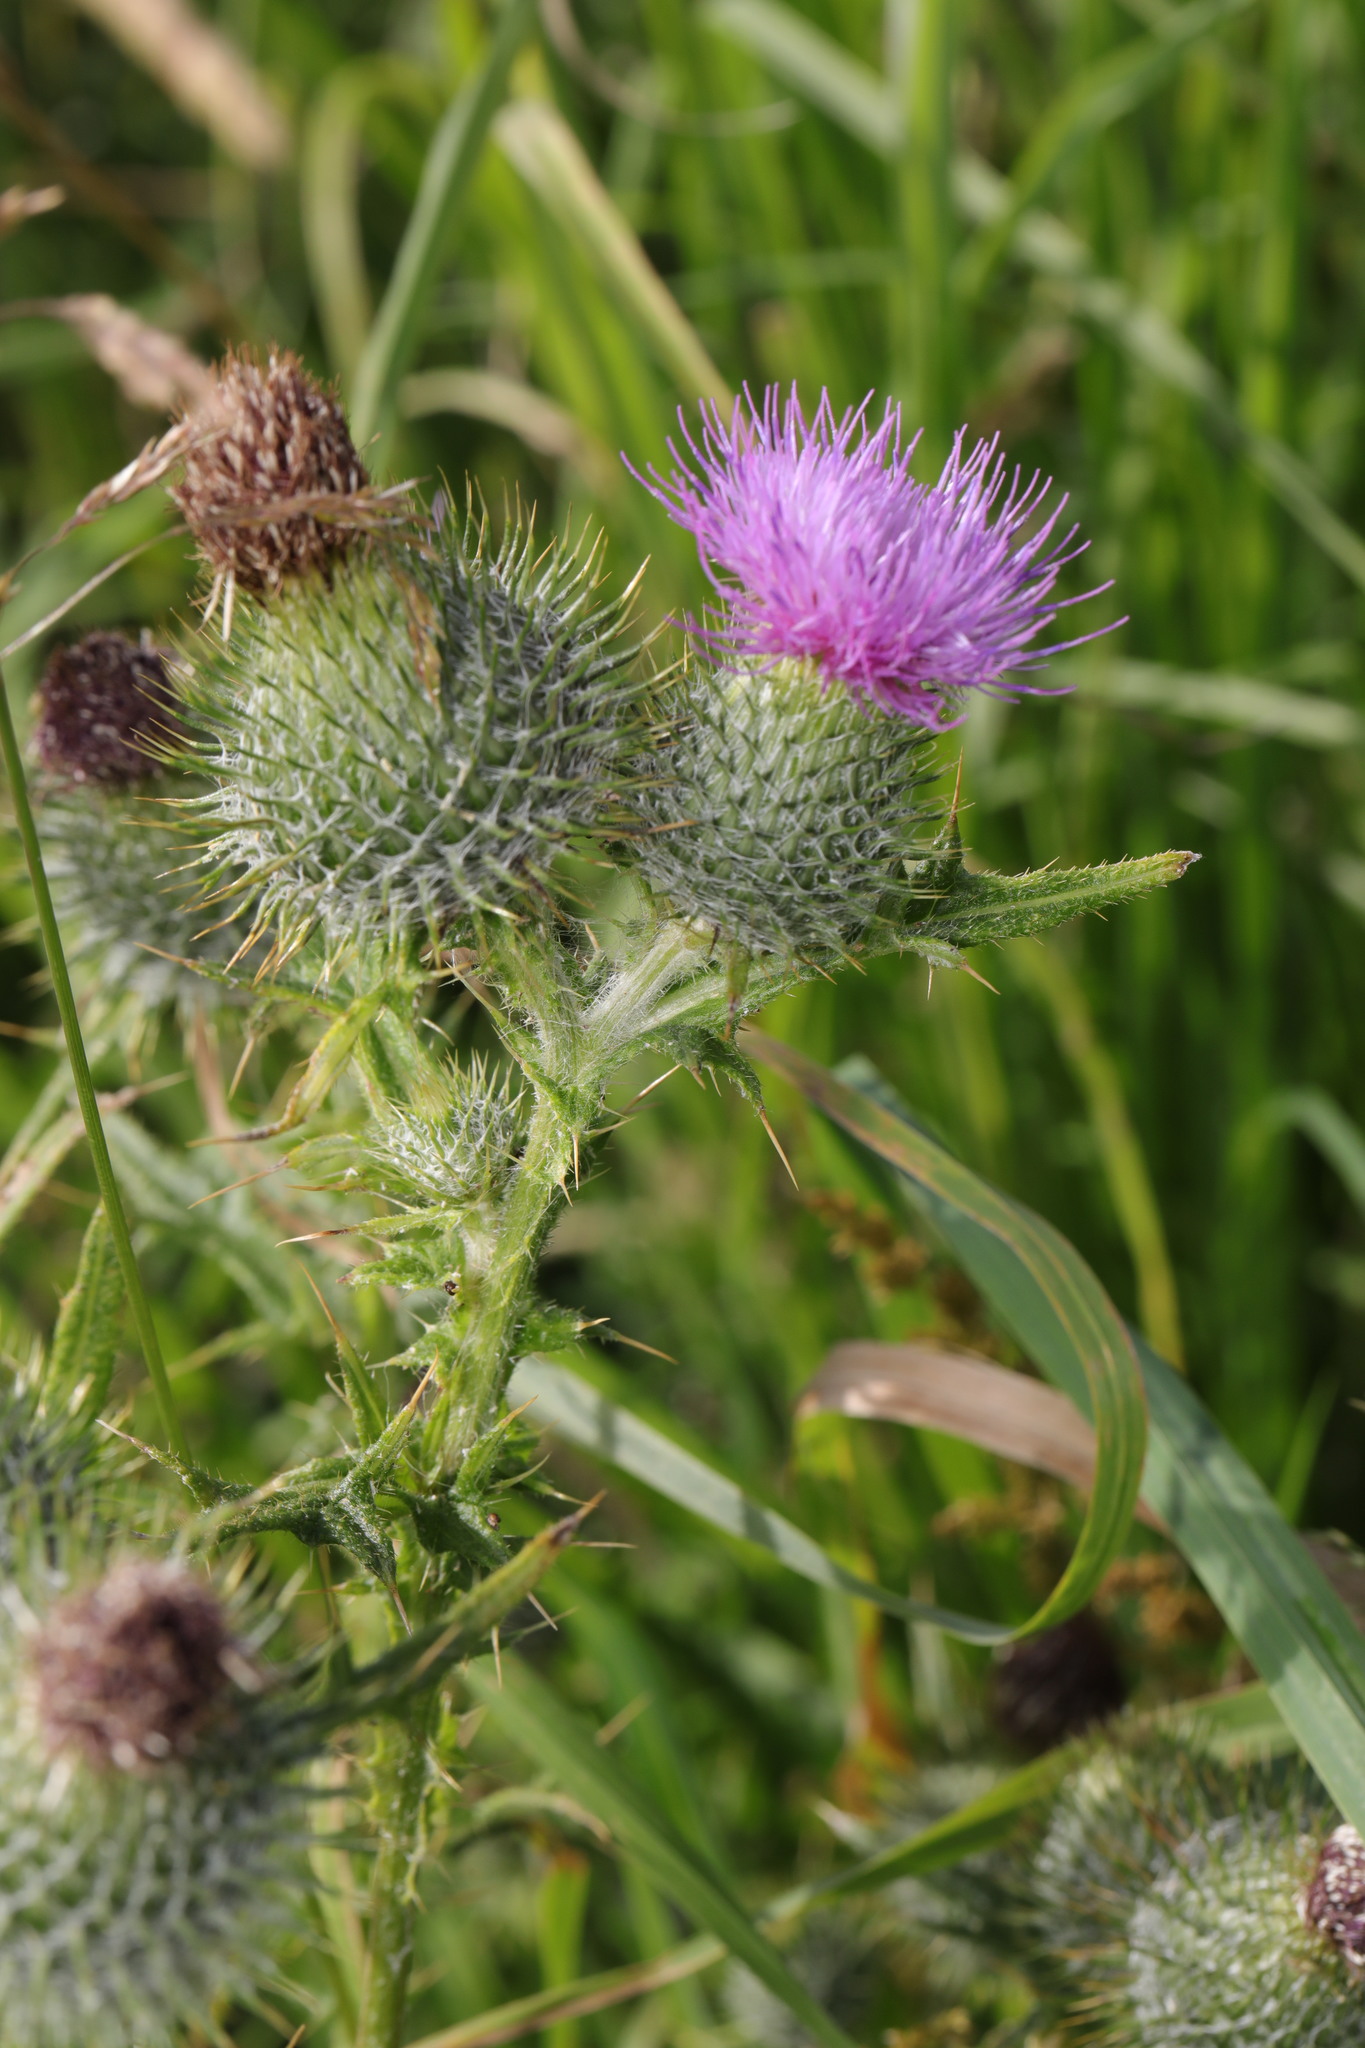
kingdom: Plantae
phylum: Tracheophyta
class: Magnoliopsida
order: Asterales
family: Asteraceae
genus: Cirsium
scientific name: Cirsium vulgare
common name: Bull thistle
